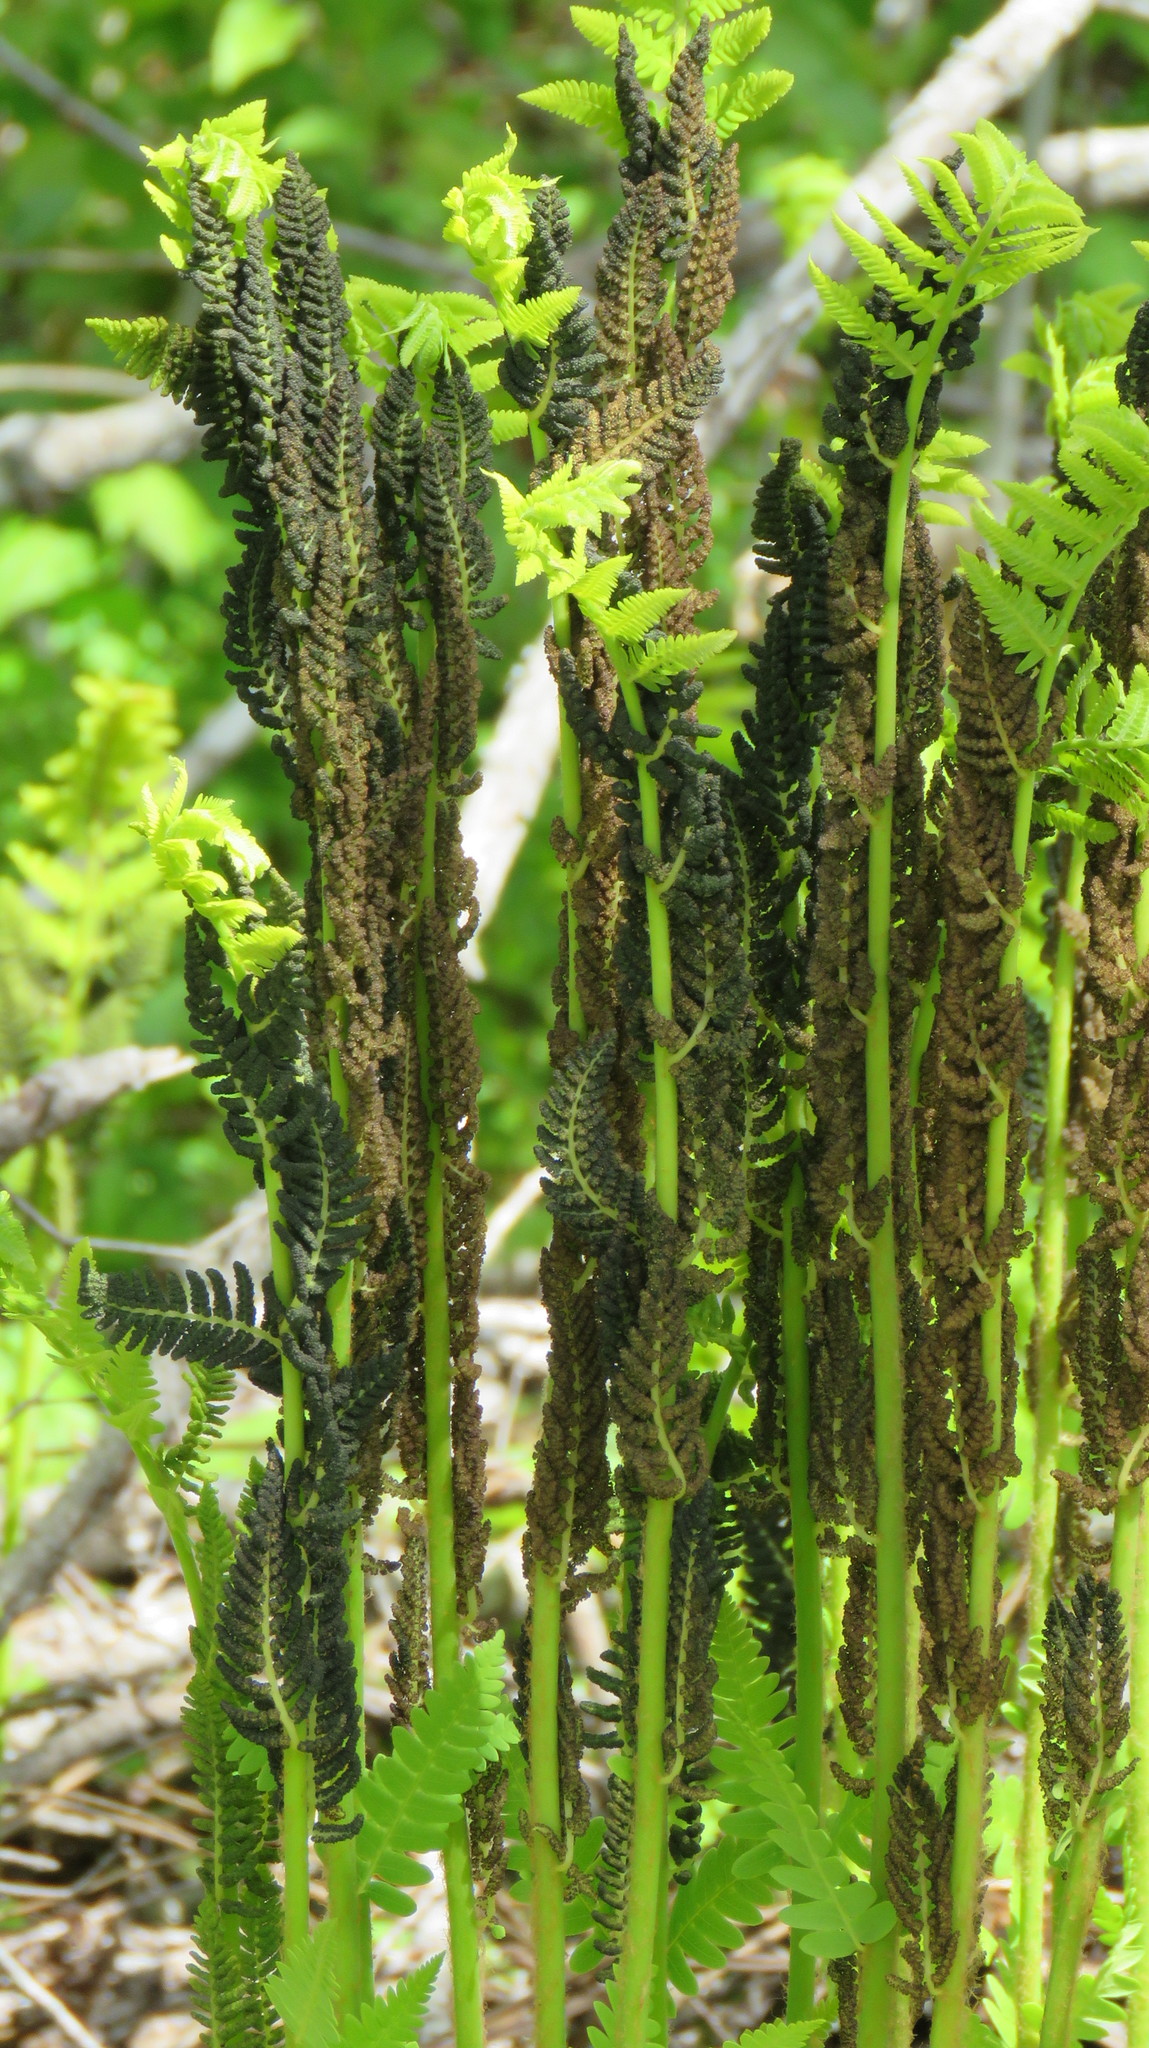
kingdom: Plantae
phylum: Tracheophyta
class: Polypodiopsida
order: Osmundales
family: Osmundaceae
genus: Claytosmunda
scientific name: Claytosmunda claytoniana
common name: Clayton's fern
